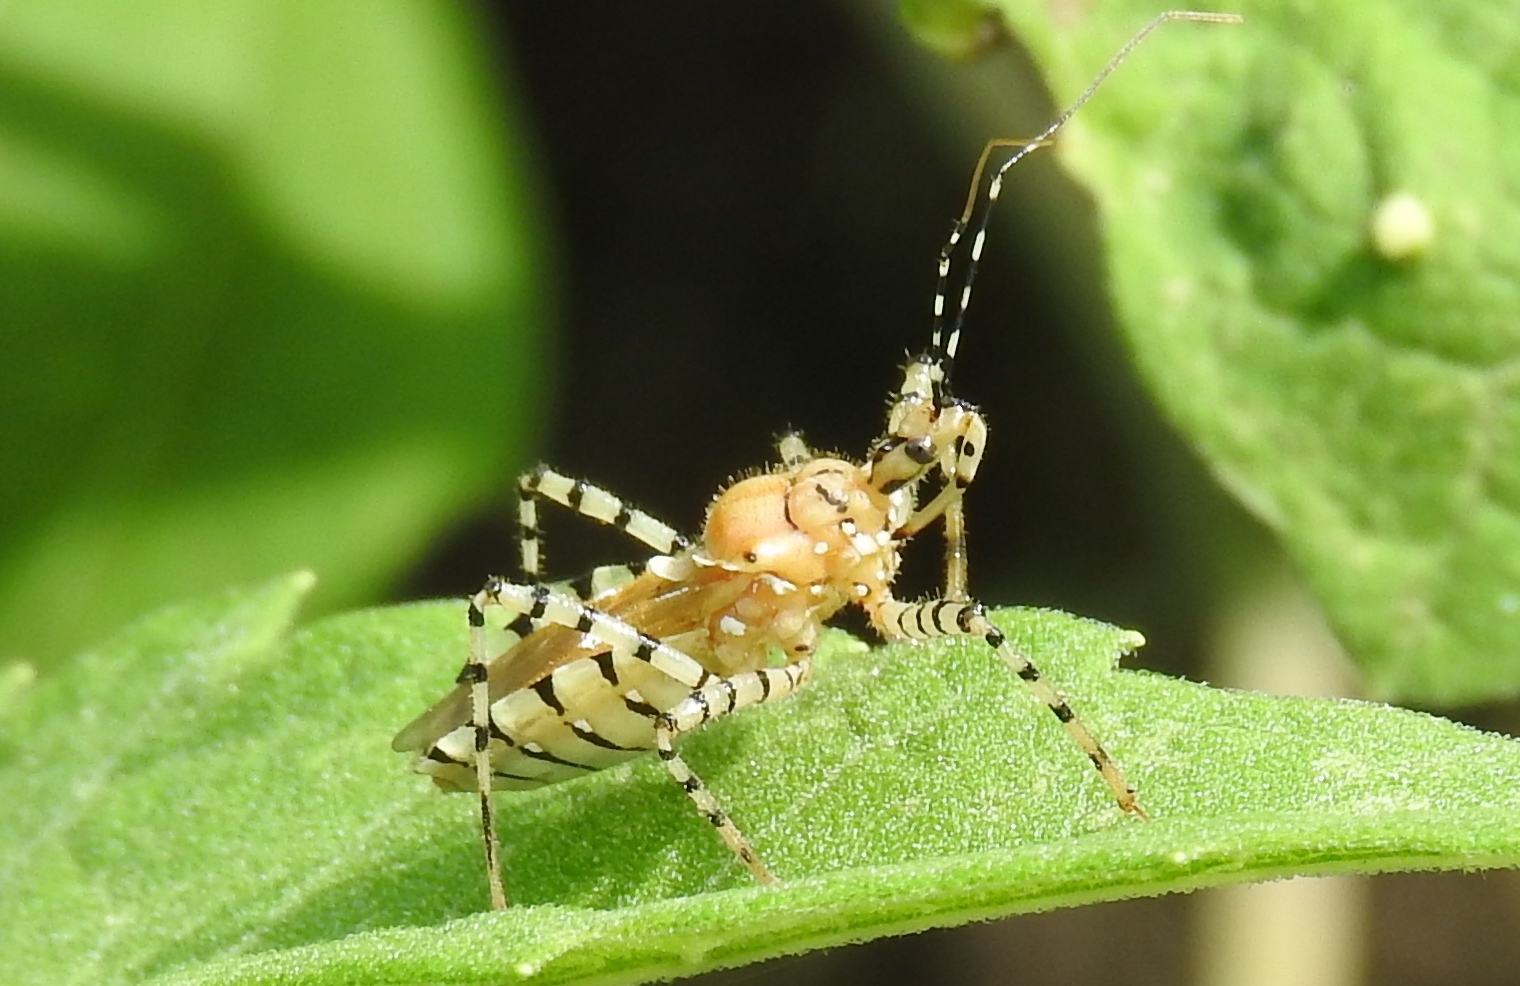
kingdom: Animalia
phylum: Arthropoda
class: Insecta
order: Hemiptera
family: Reduviidae
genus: Pselliopus
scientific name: Pselliopus
